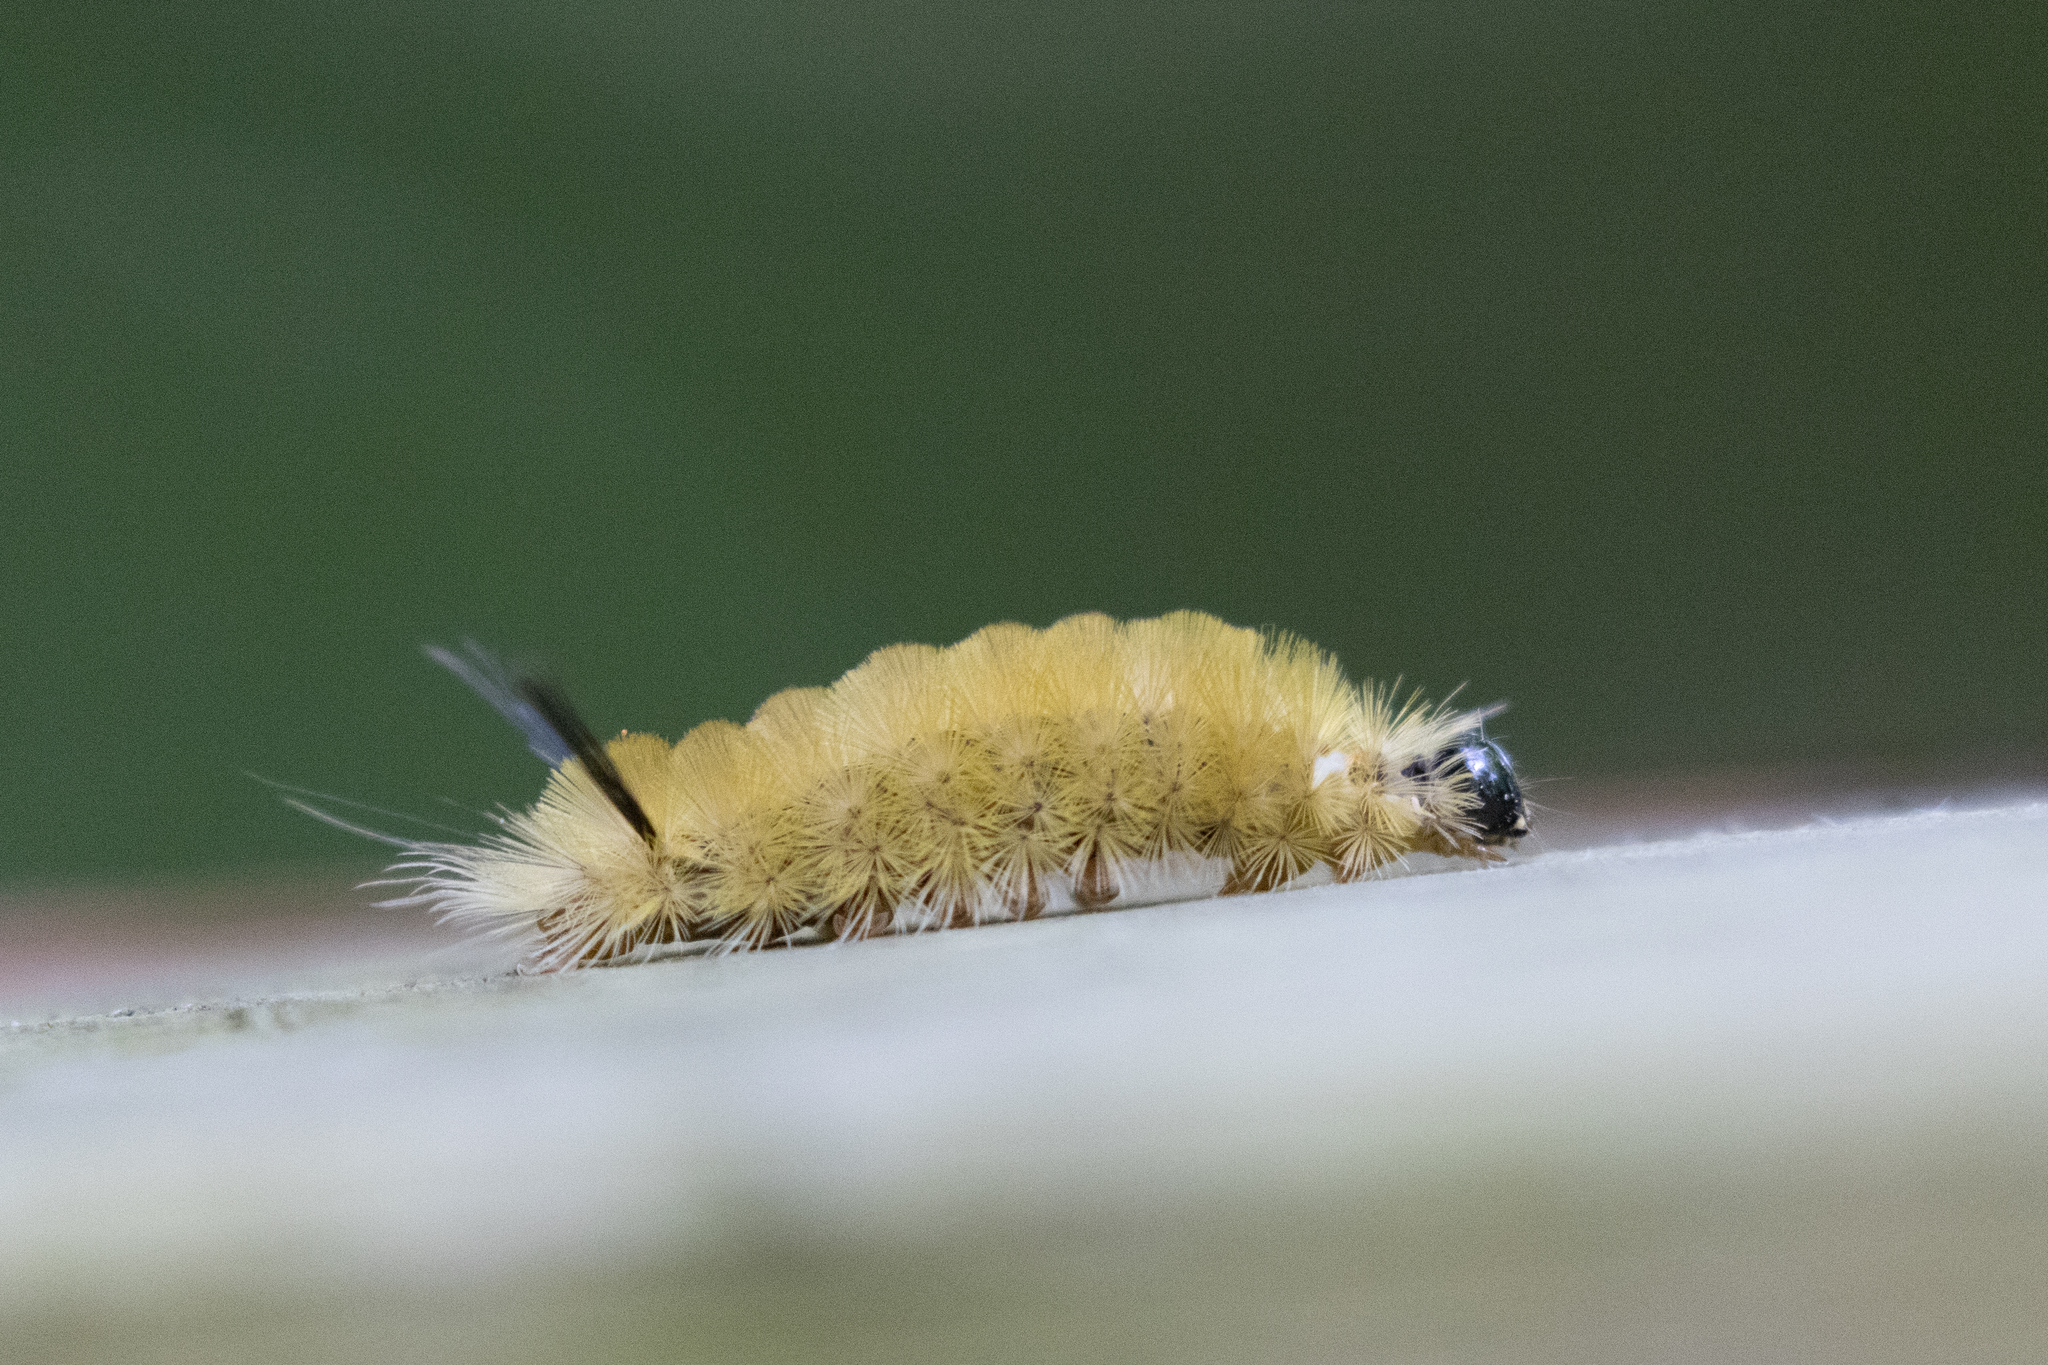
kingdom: Animalia
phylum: Arthropoda
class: Insecta
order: Lepidoptera
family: Erebidae
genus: Halysidota
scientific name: Halysidota tessellaris
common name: Banded tussock moth
